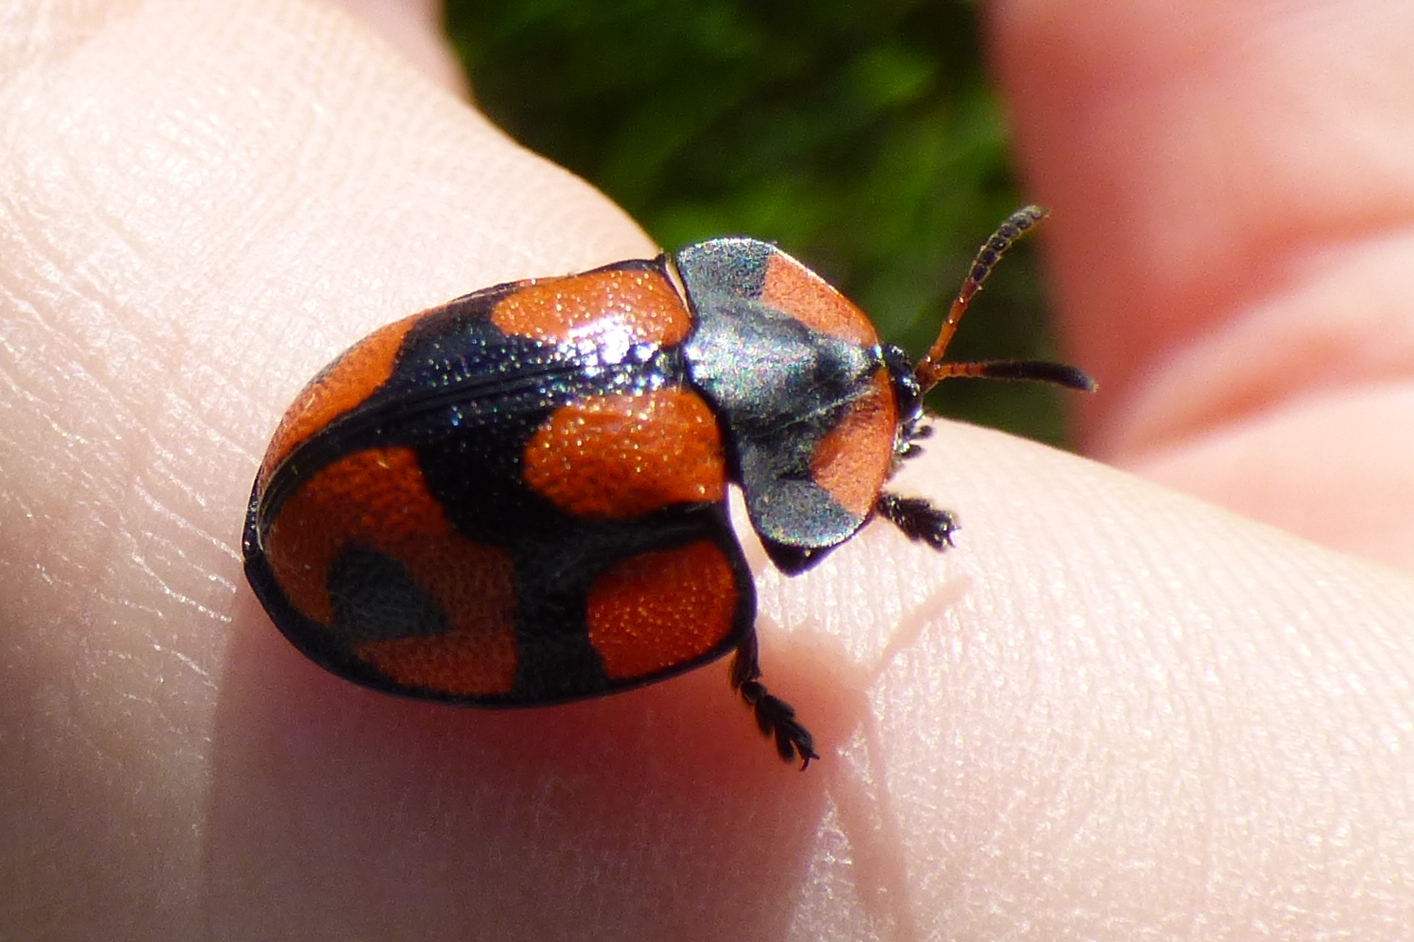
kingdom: Animalia
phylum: Arthropoda
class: Insecta
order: Coleoptera
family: Chrysomelidae
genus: Botanochara
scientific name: Botanochara angulata
